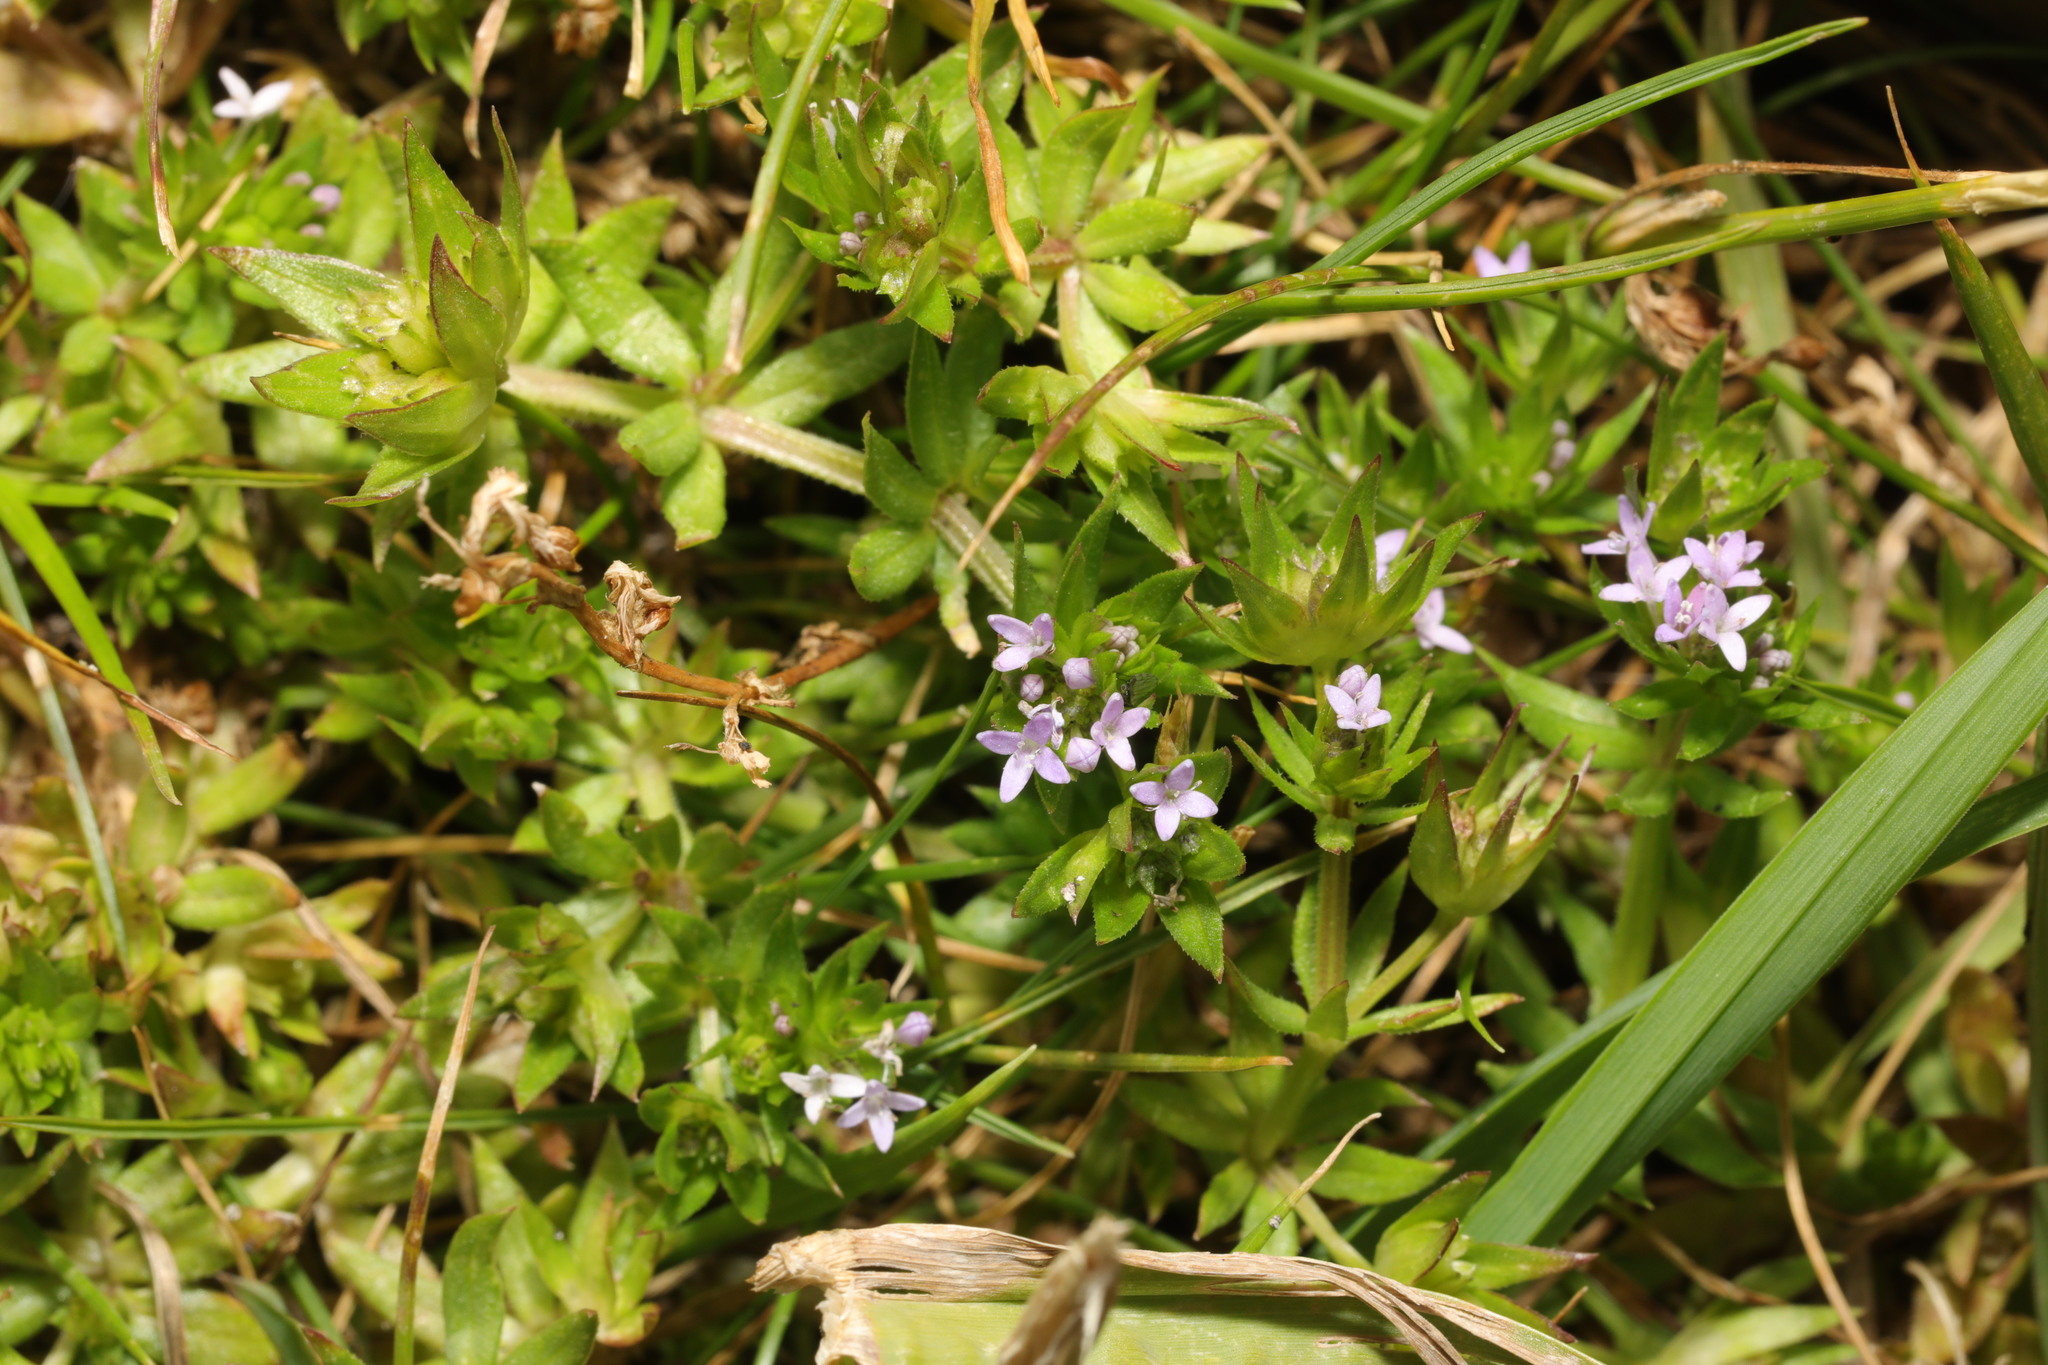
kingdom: Plantae
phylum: Tracheophyta
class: Magnoliopsida
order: Gentianales
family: Rubiaceae
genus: Sherardia
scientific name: Sherardia arvensis
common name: Field madder
